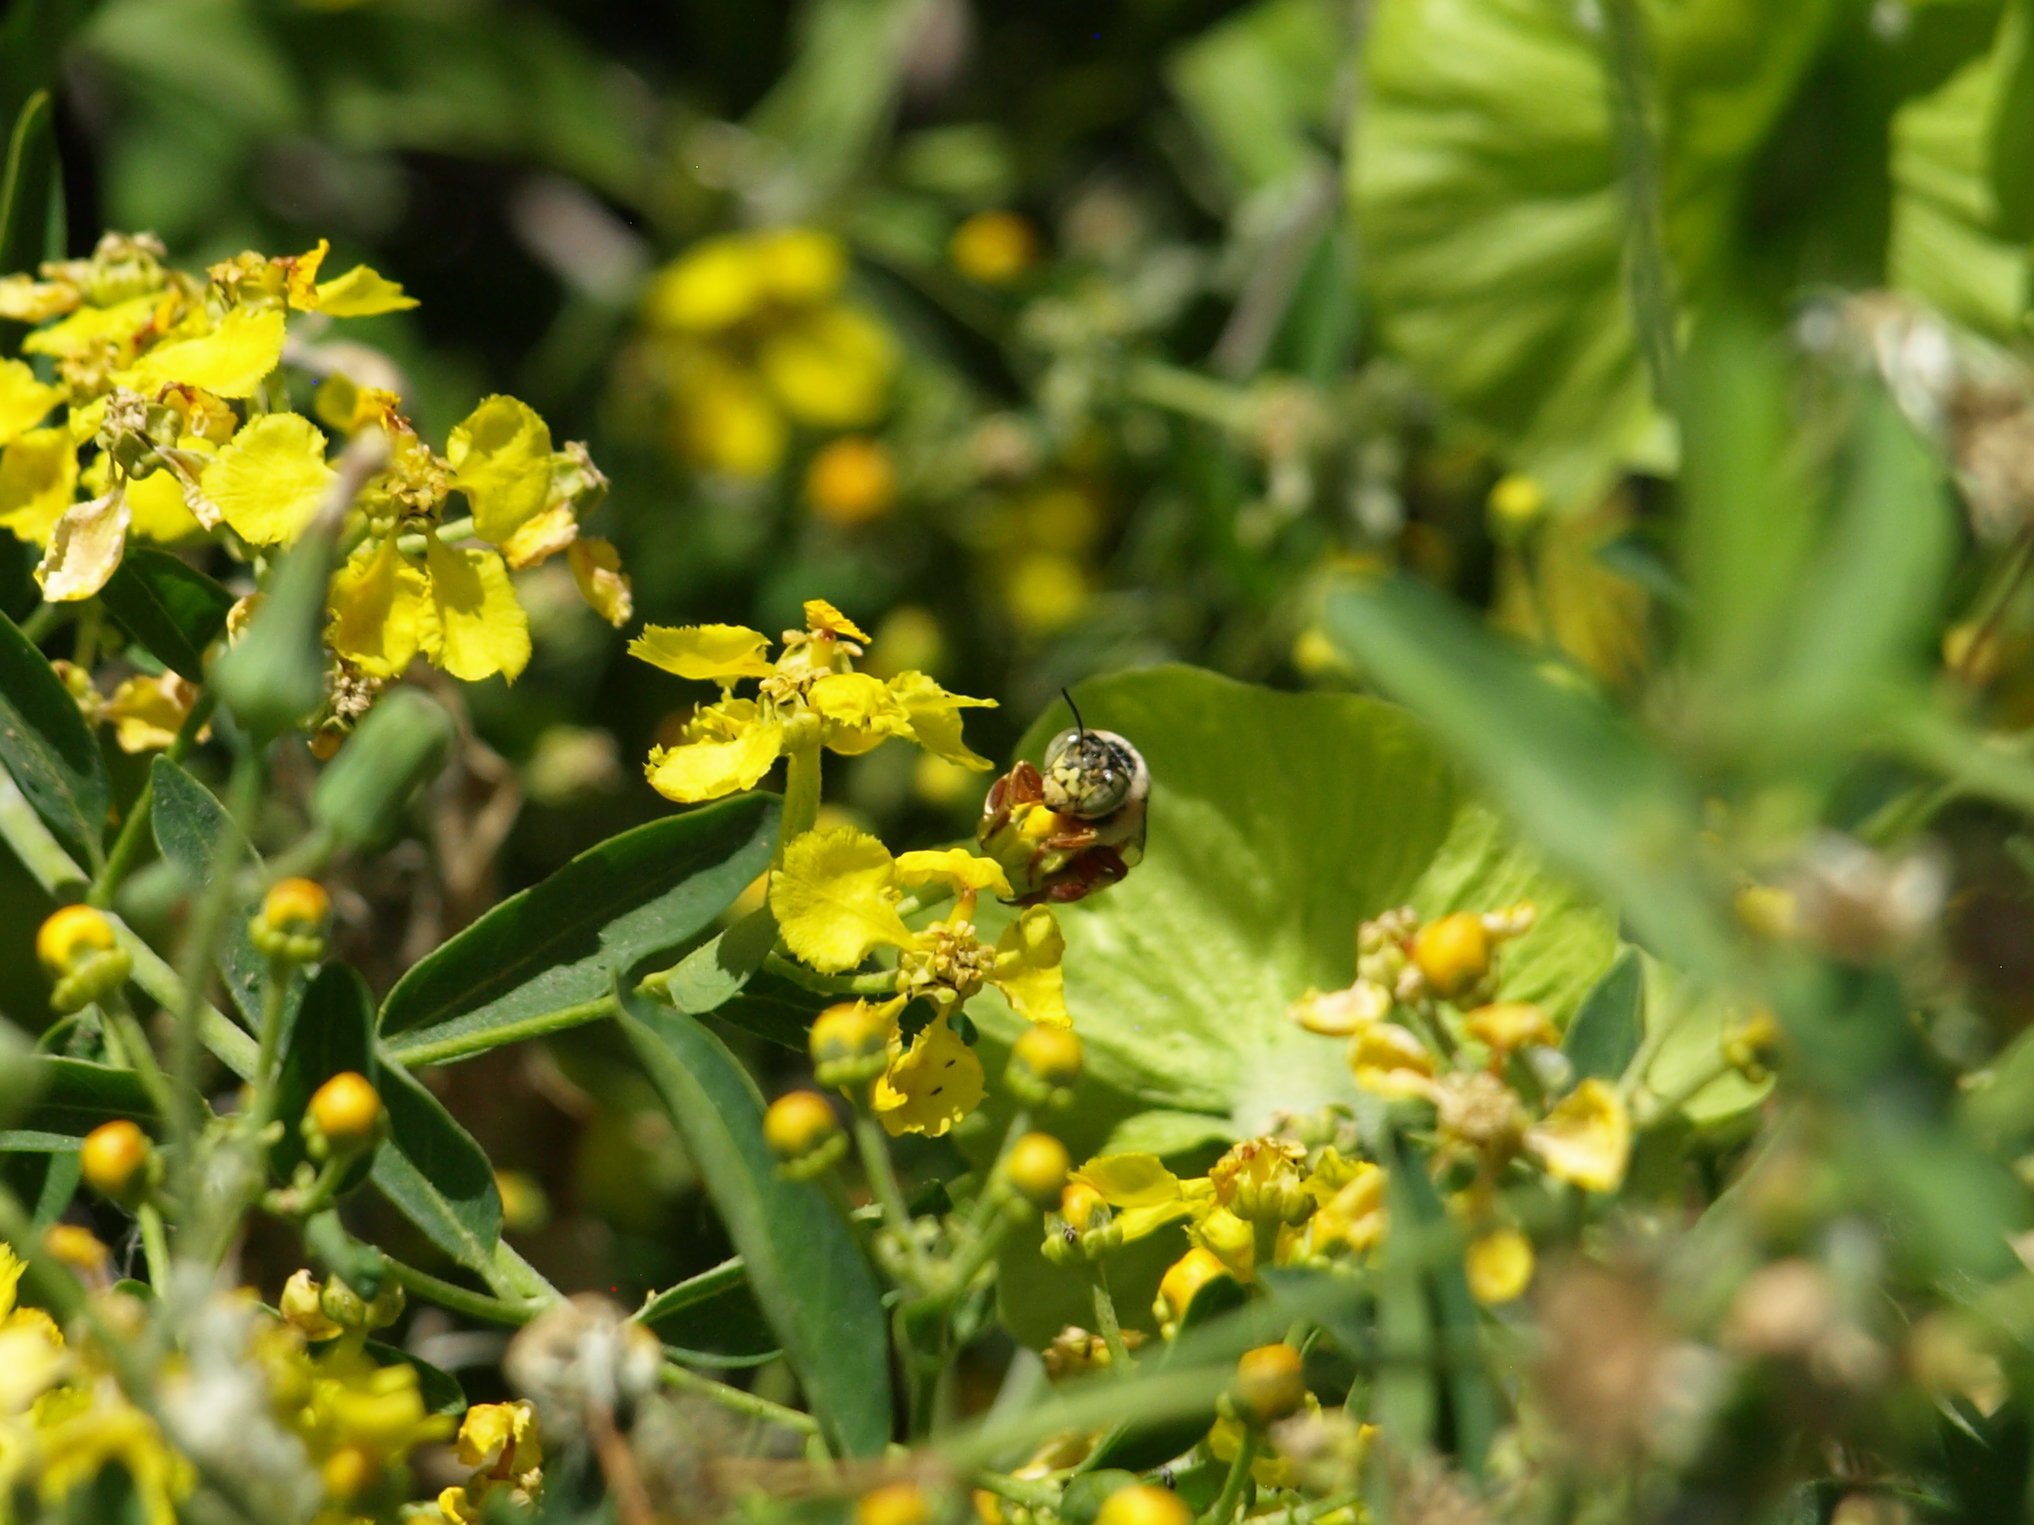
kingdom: Animalia
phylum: Arthropoda
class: Insecta
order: Hymenoptera
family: Apidae
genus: Centris
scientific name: Centris aethyctera
